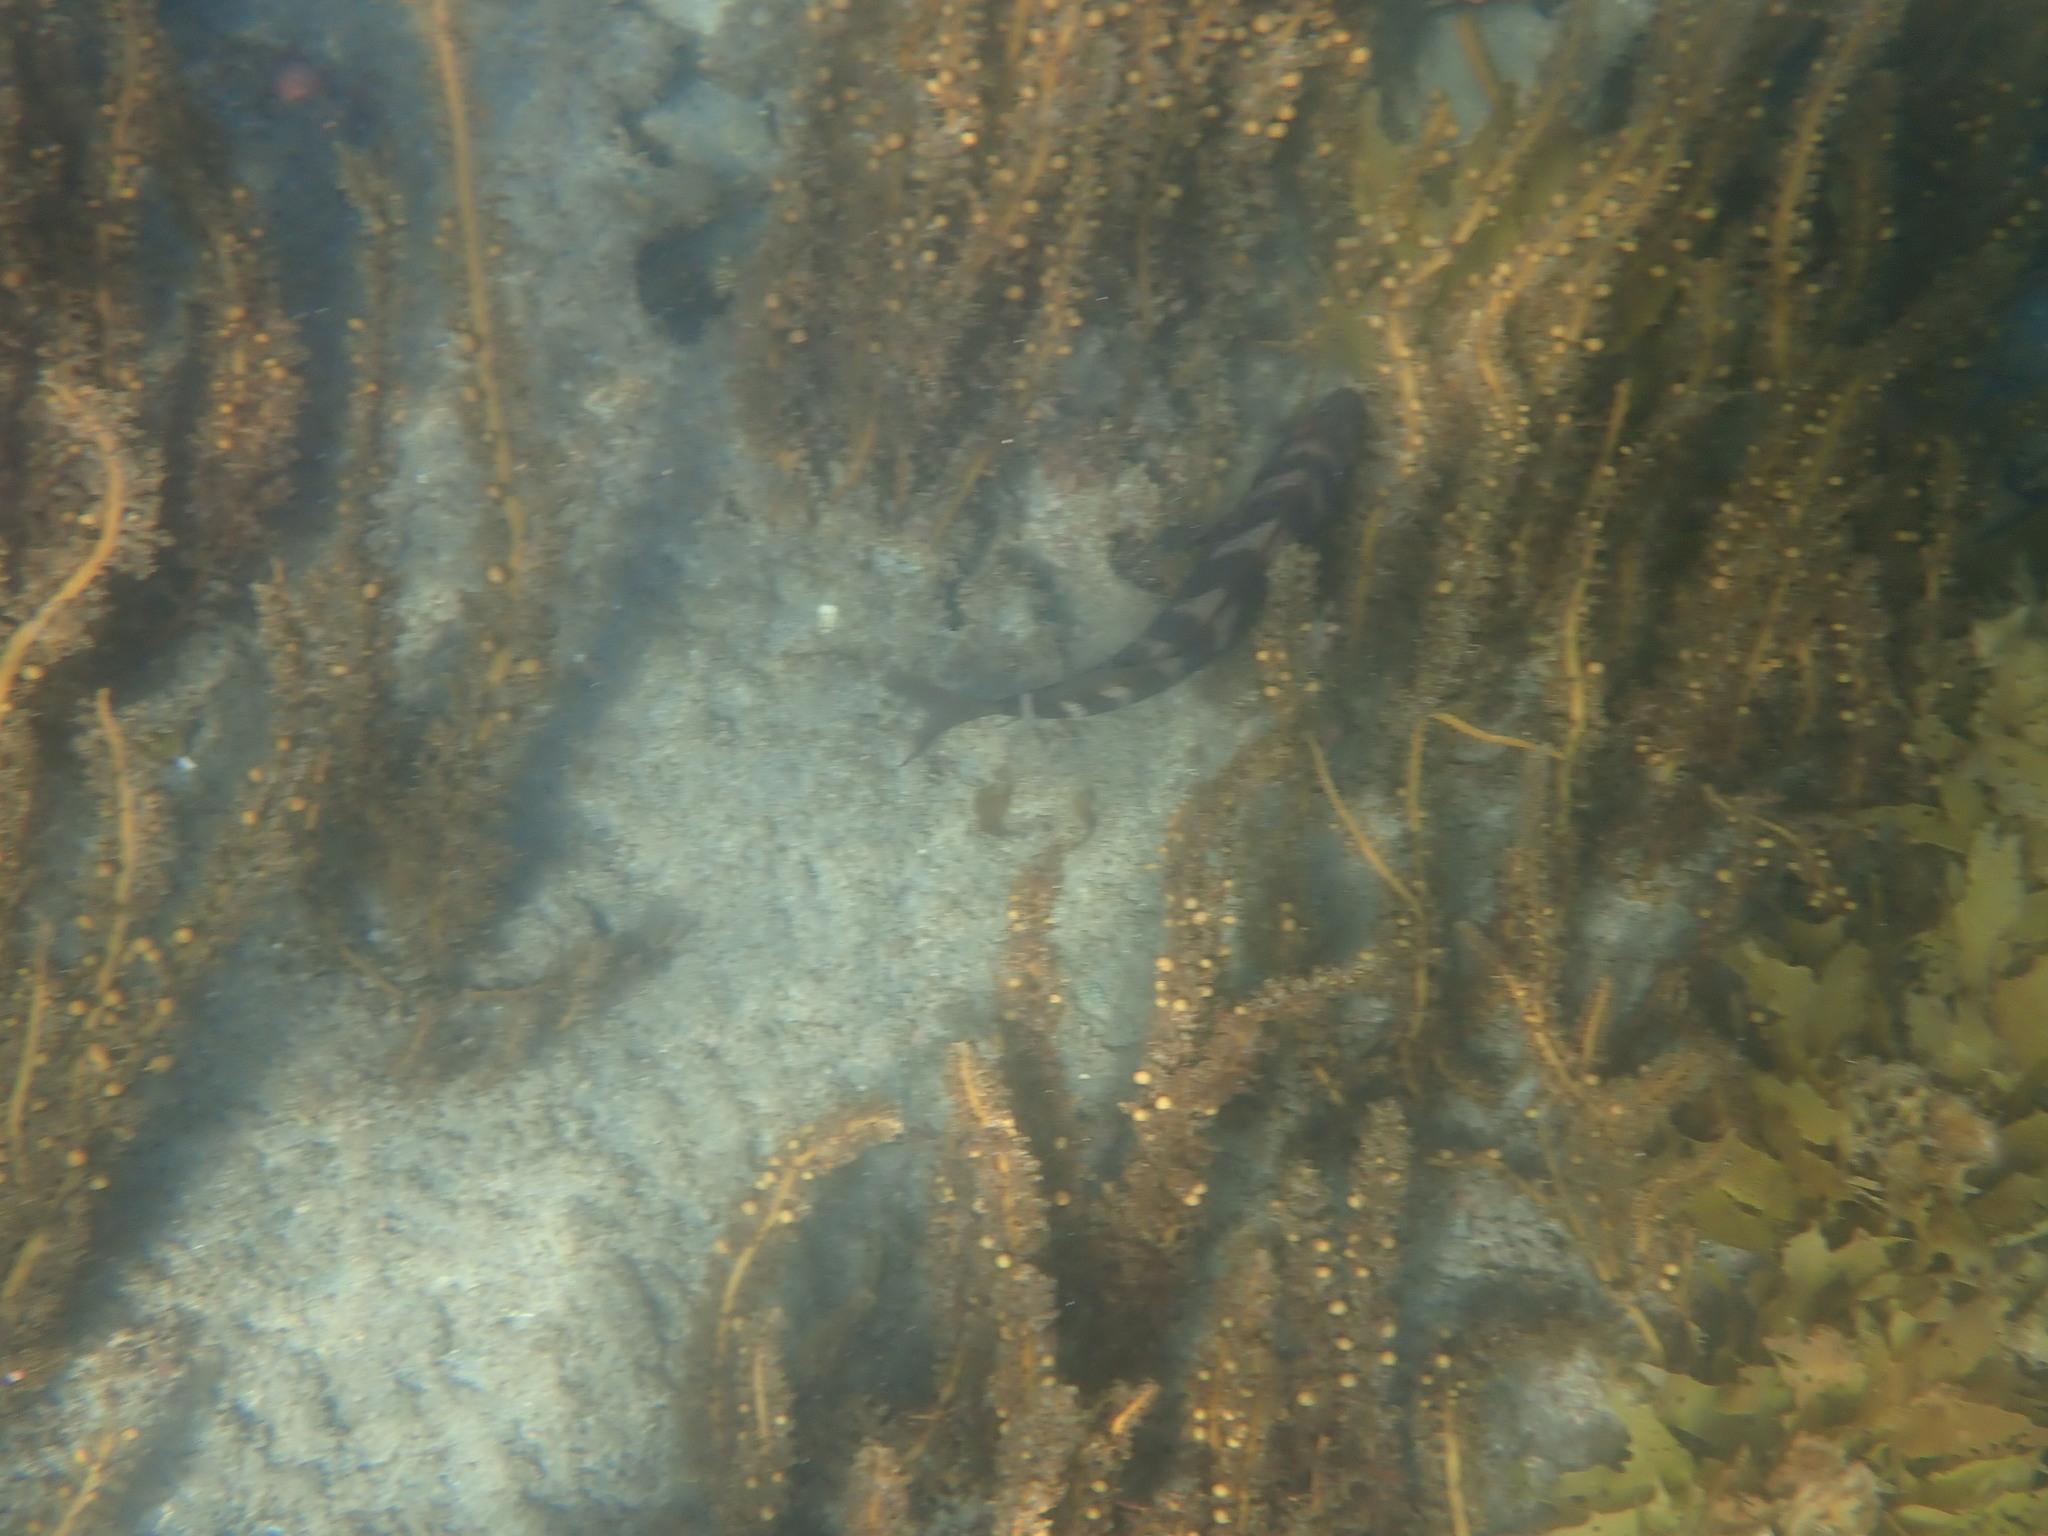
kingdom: Animalia
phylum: Chordata
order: Perciformes
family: Cheilodactylidae
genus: Cheilodactylus
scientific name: Cheilodactylus spectabilis
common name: Red moki
